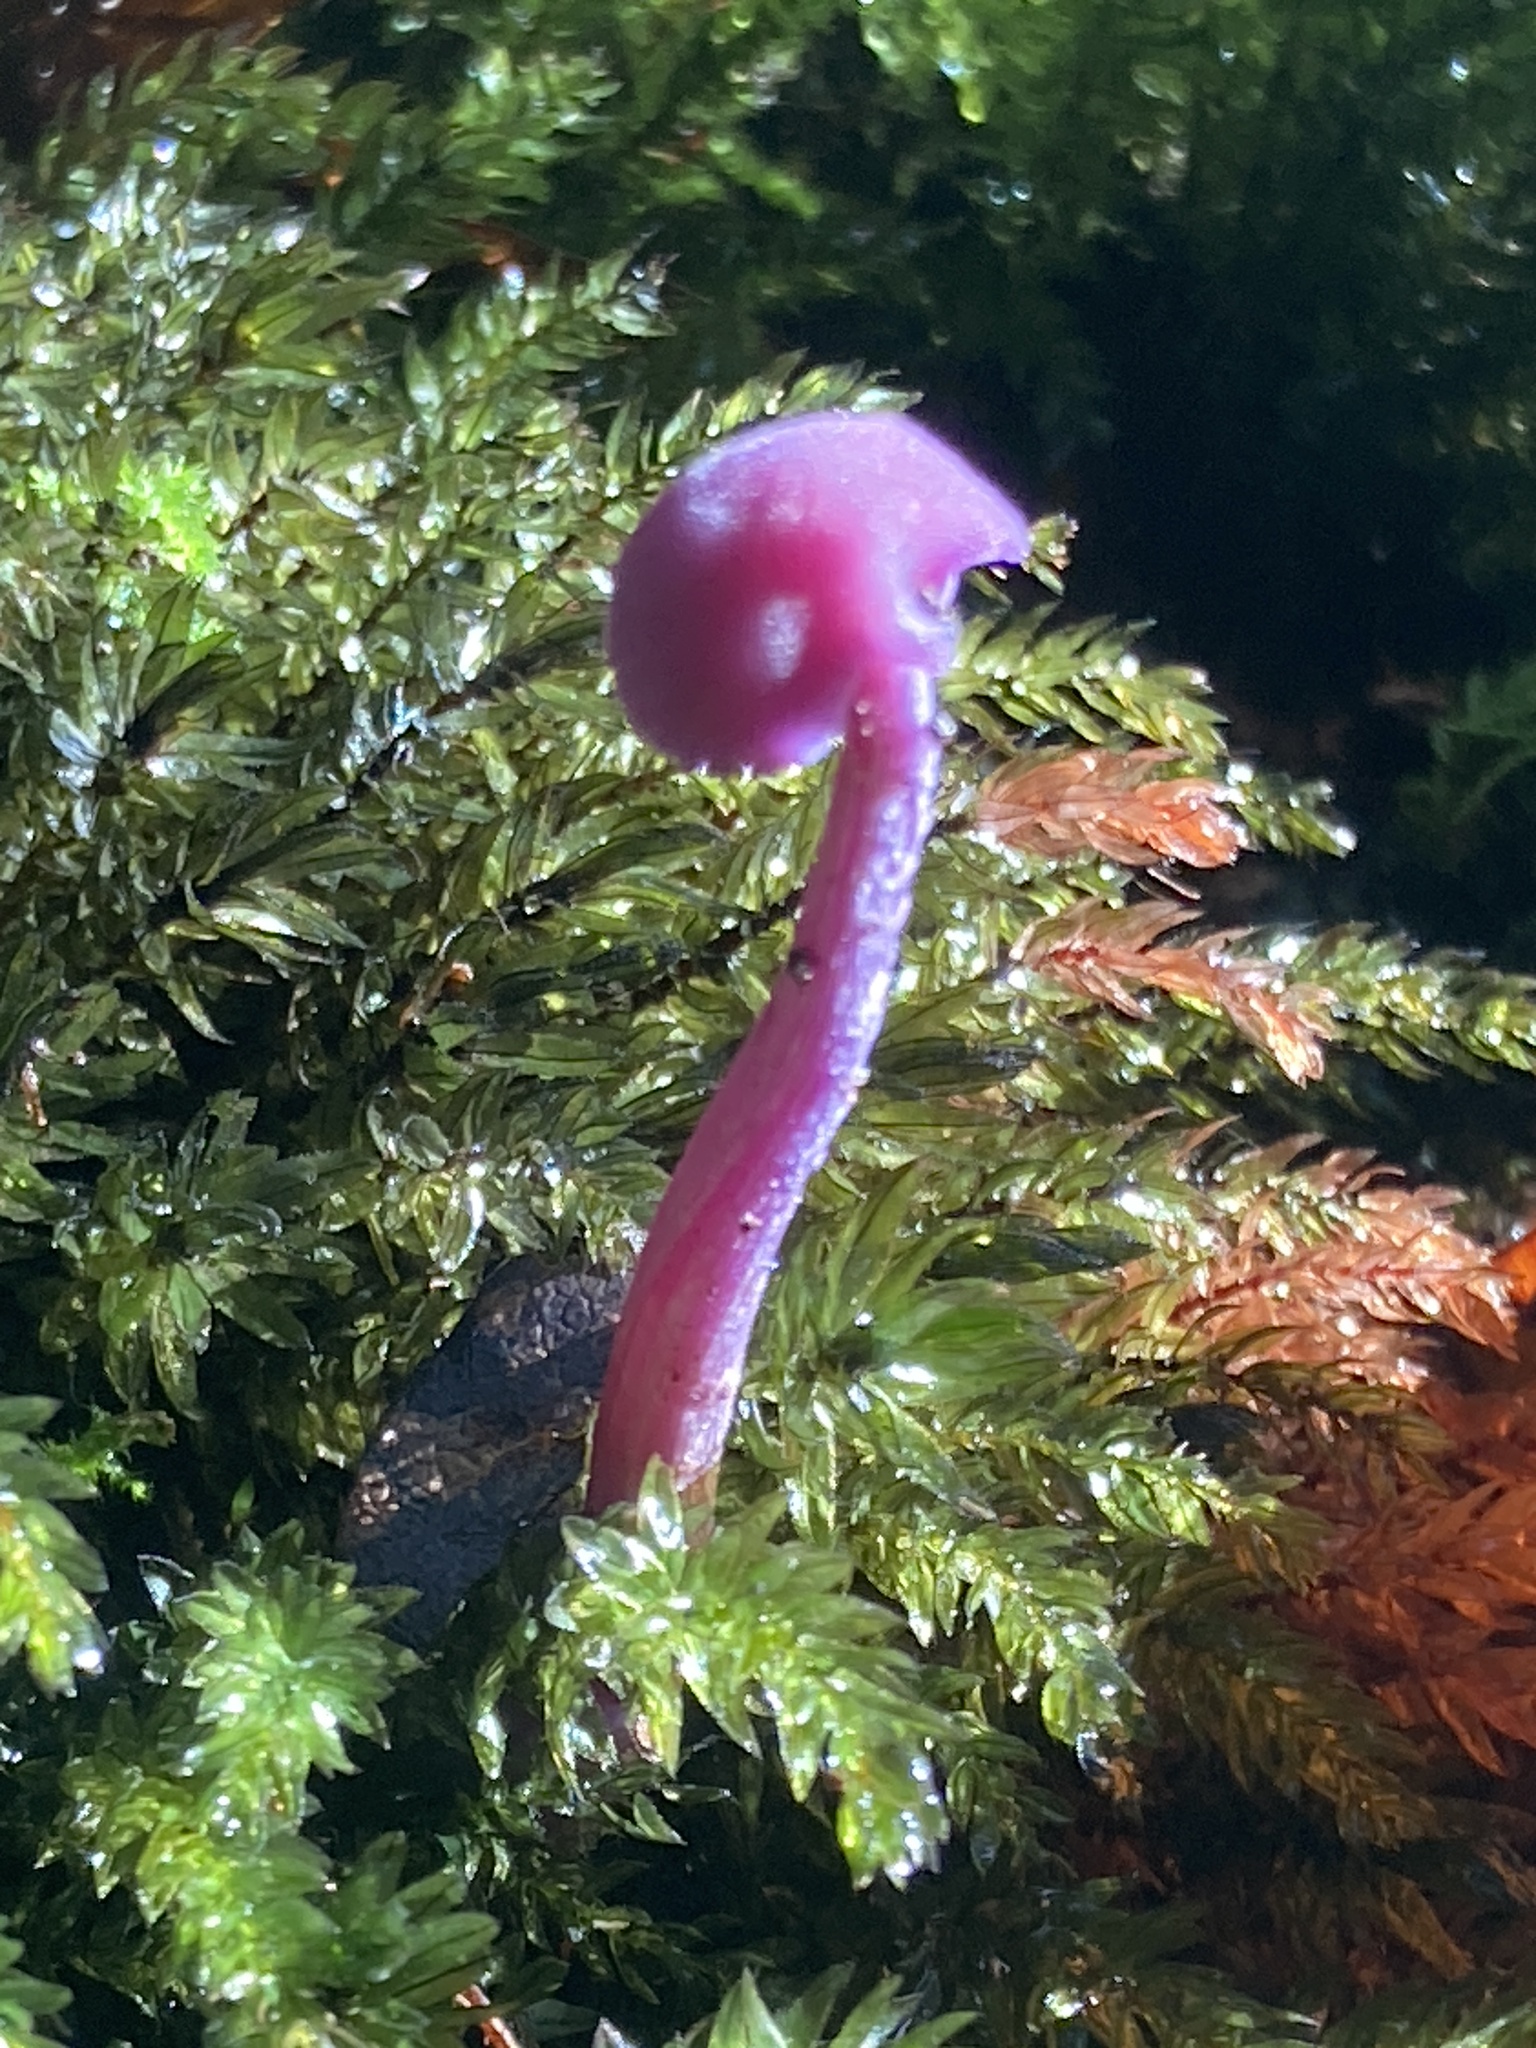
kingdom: Fungi
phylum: Basidiomycota
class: Agaricomycetes
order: Agaricales
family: Hydnangiaceae
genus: Laccaria
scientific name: Laccaria amethystina
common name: Amethyst deceiver
